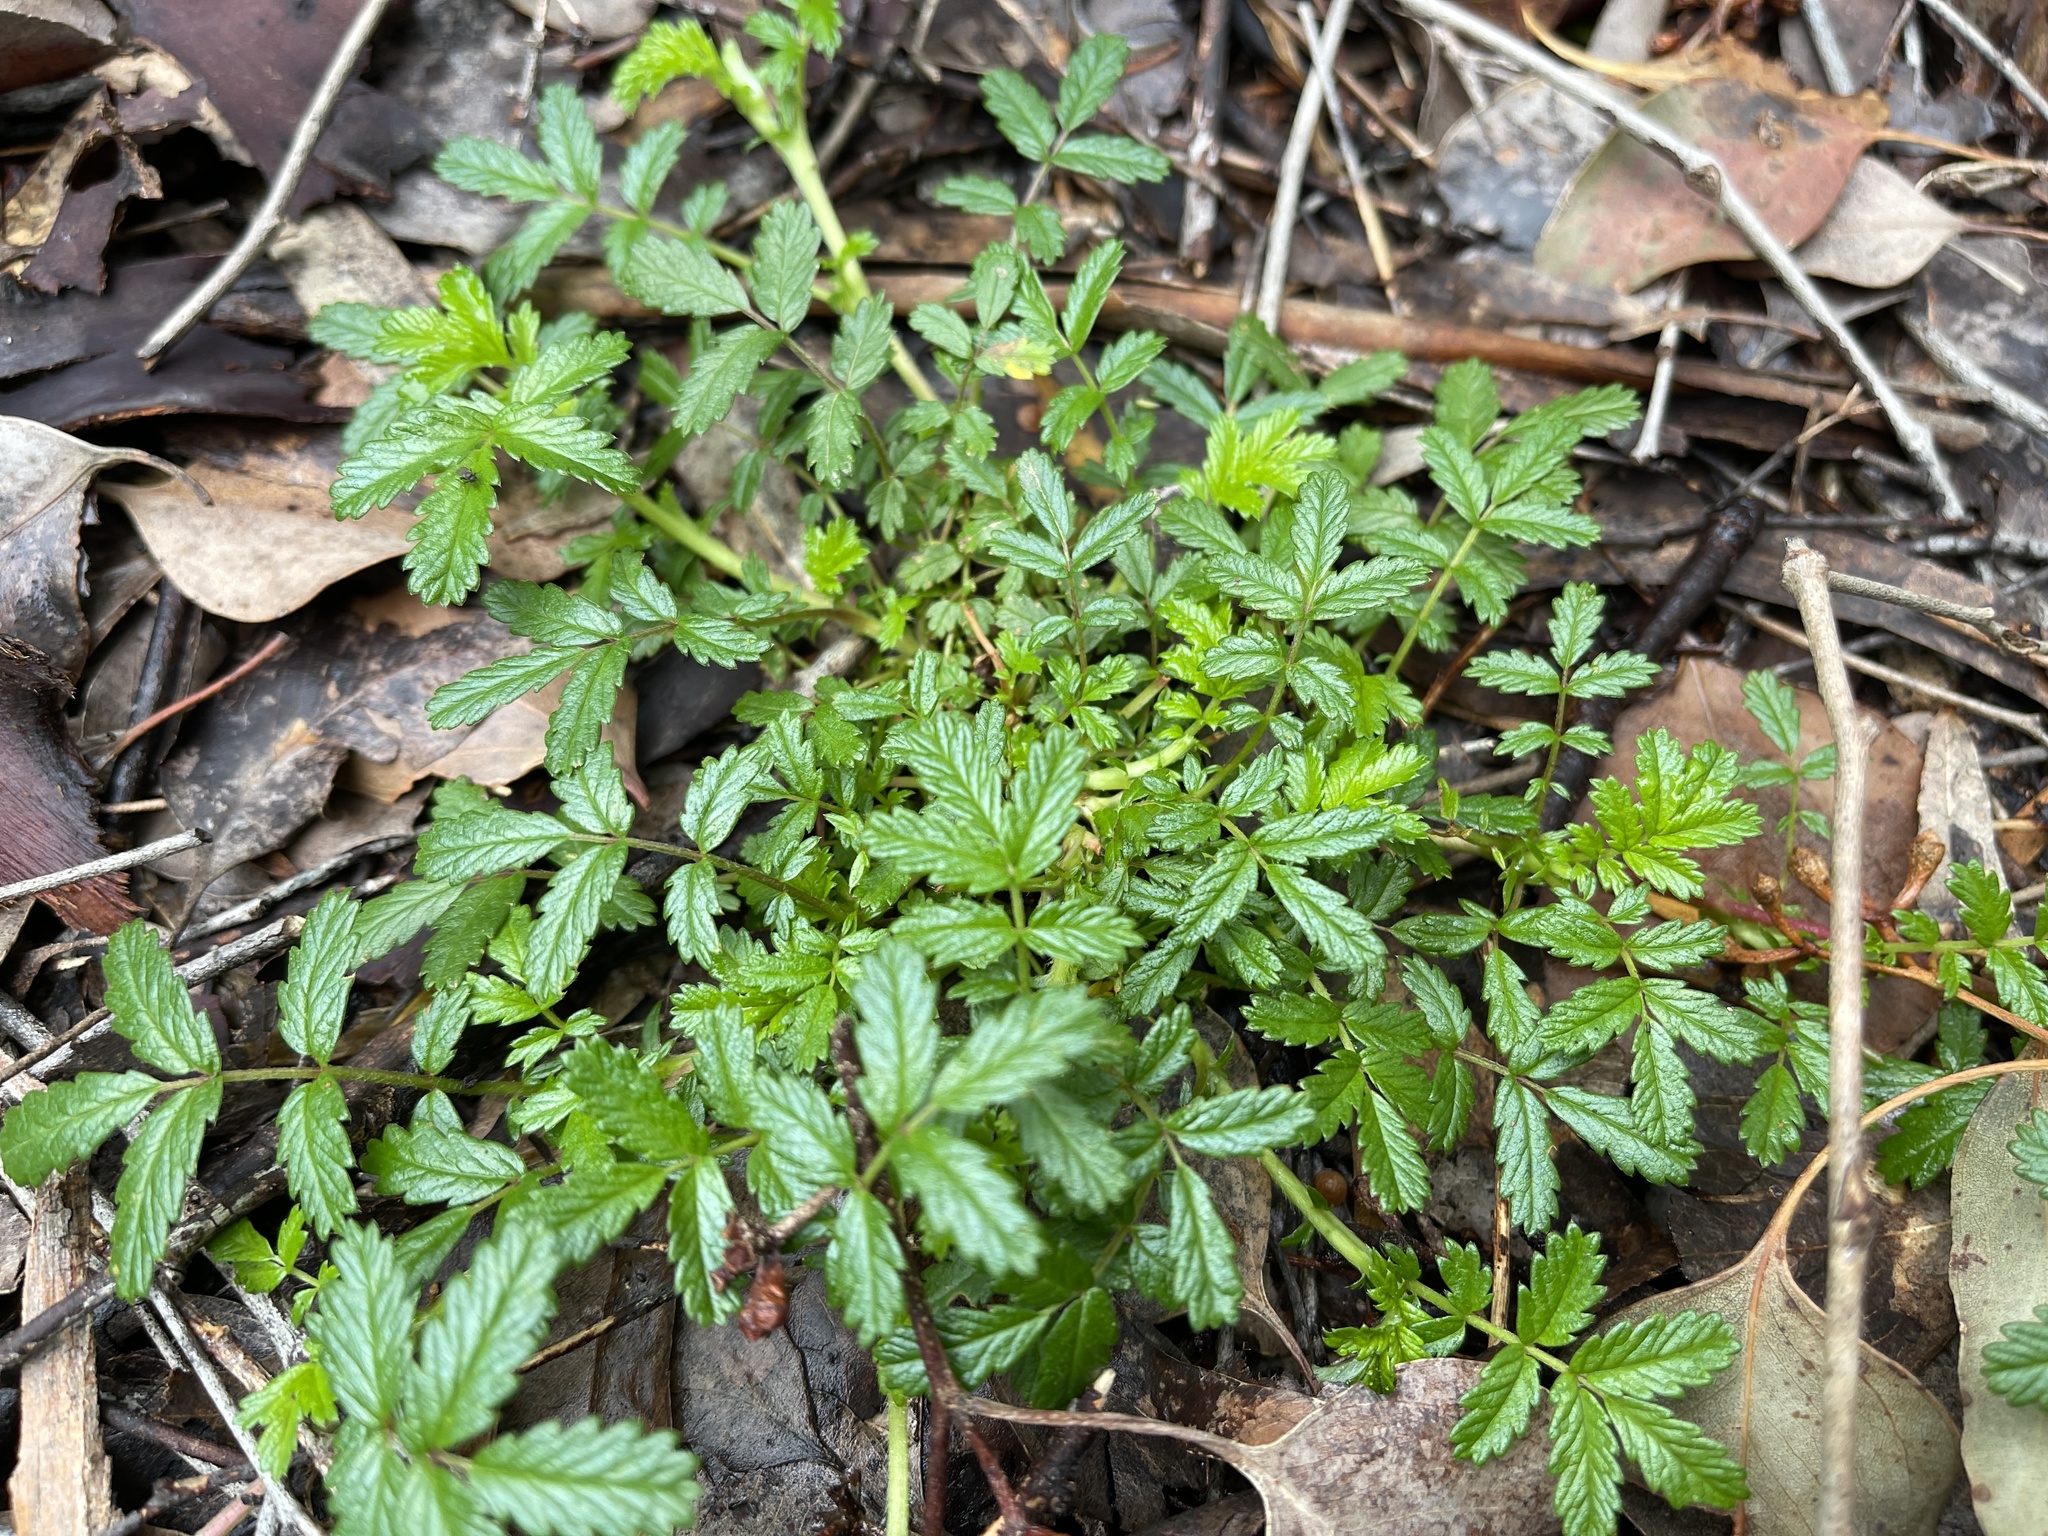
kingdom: Plantae
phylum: Tracheophyta
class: Magnoliopsida
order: Rosales
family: Rosaceae
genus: Acaena
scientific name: Acaena novae-zelandiae
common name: Pirri-pirri-bur
